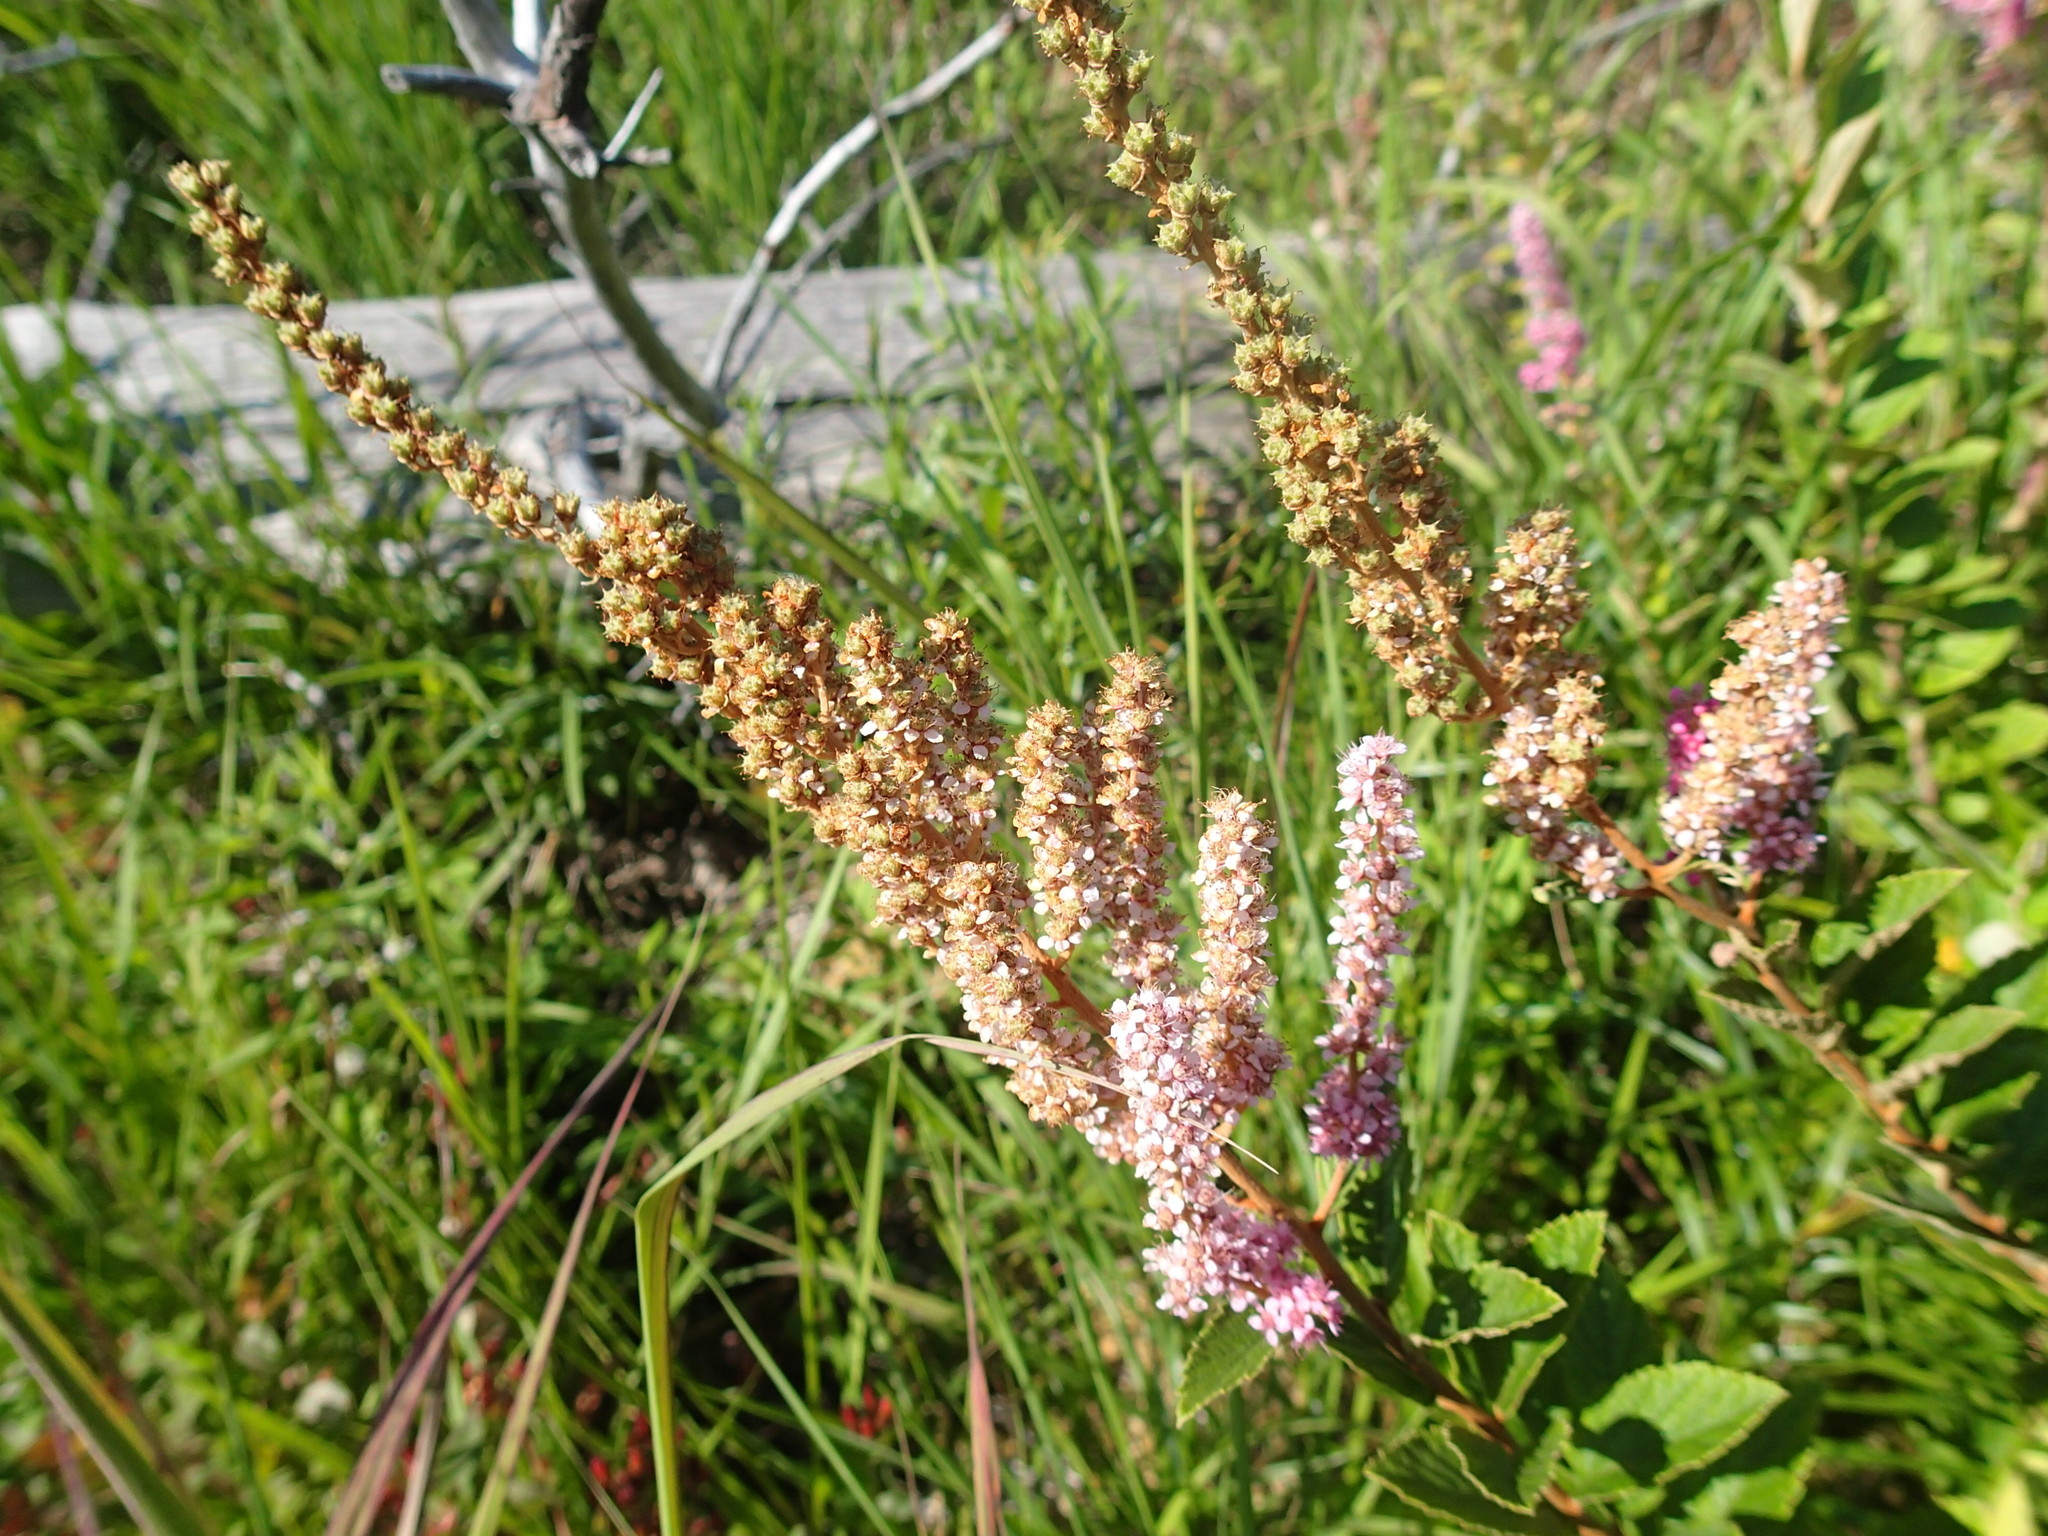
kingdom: Plantae
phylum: Tracheophyta
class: Magnoliopsida
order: Rosales
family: Rosaceae
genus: Spiraea
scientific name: Spiraea tomentosa
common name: Hardhack
